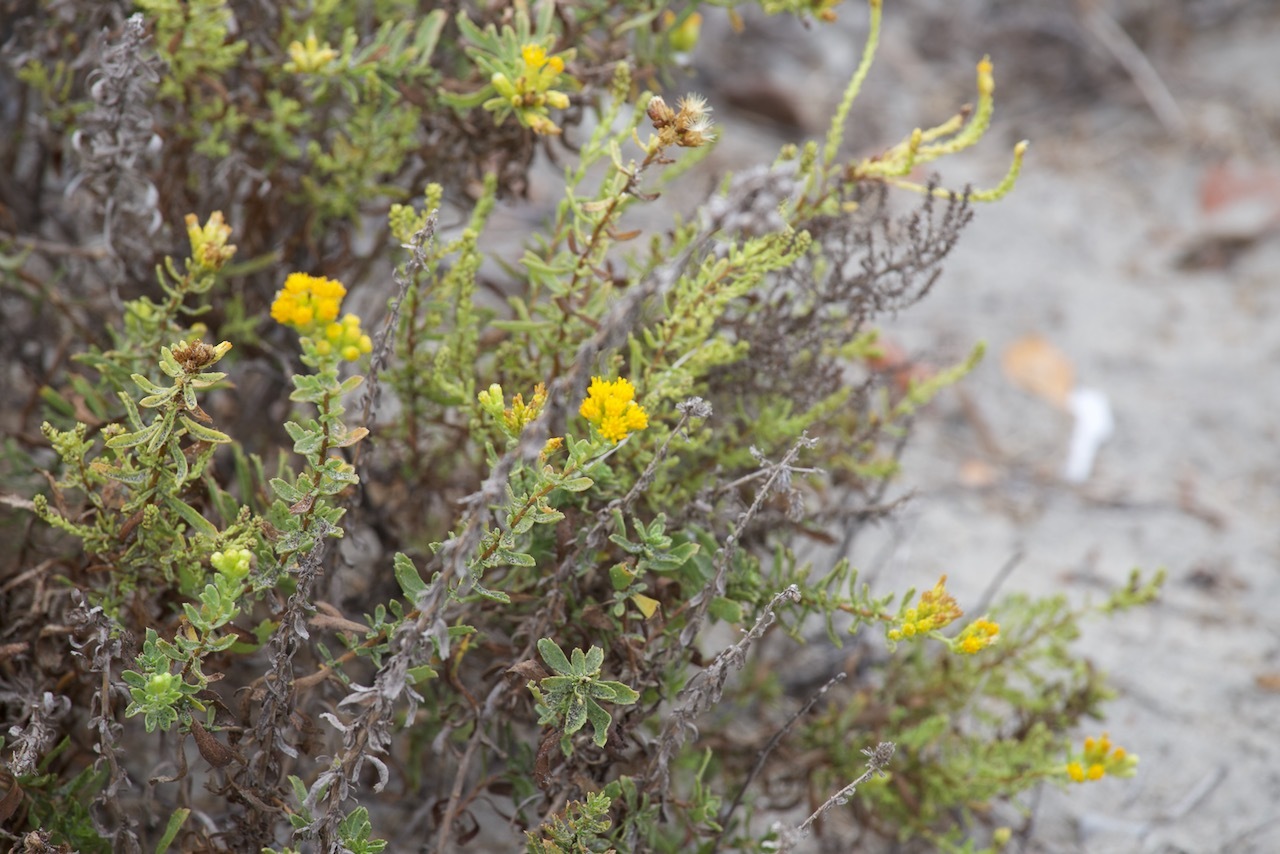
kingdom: Plantae
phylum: Tracheophyta
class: Magnoliopsida
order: Asterales
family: Asteraceae
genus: Isocoma
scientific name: Isocoma menziesii
